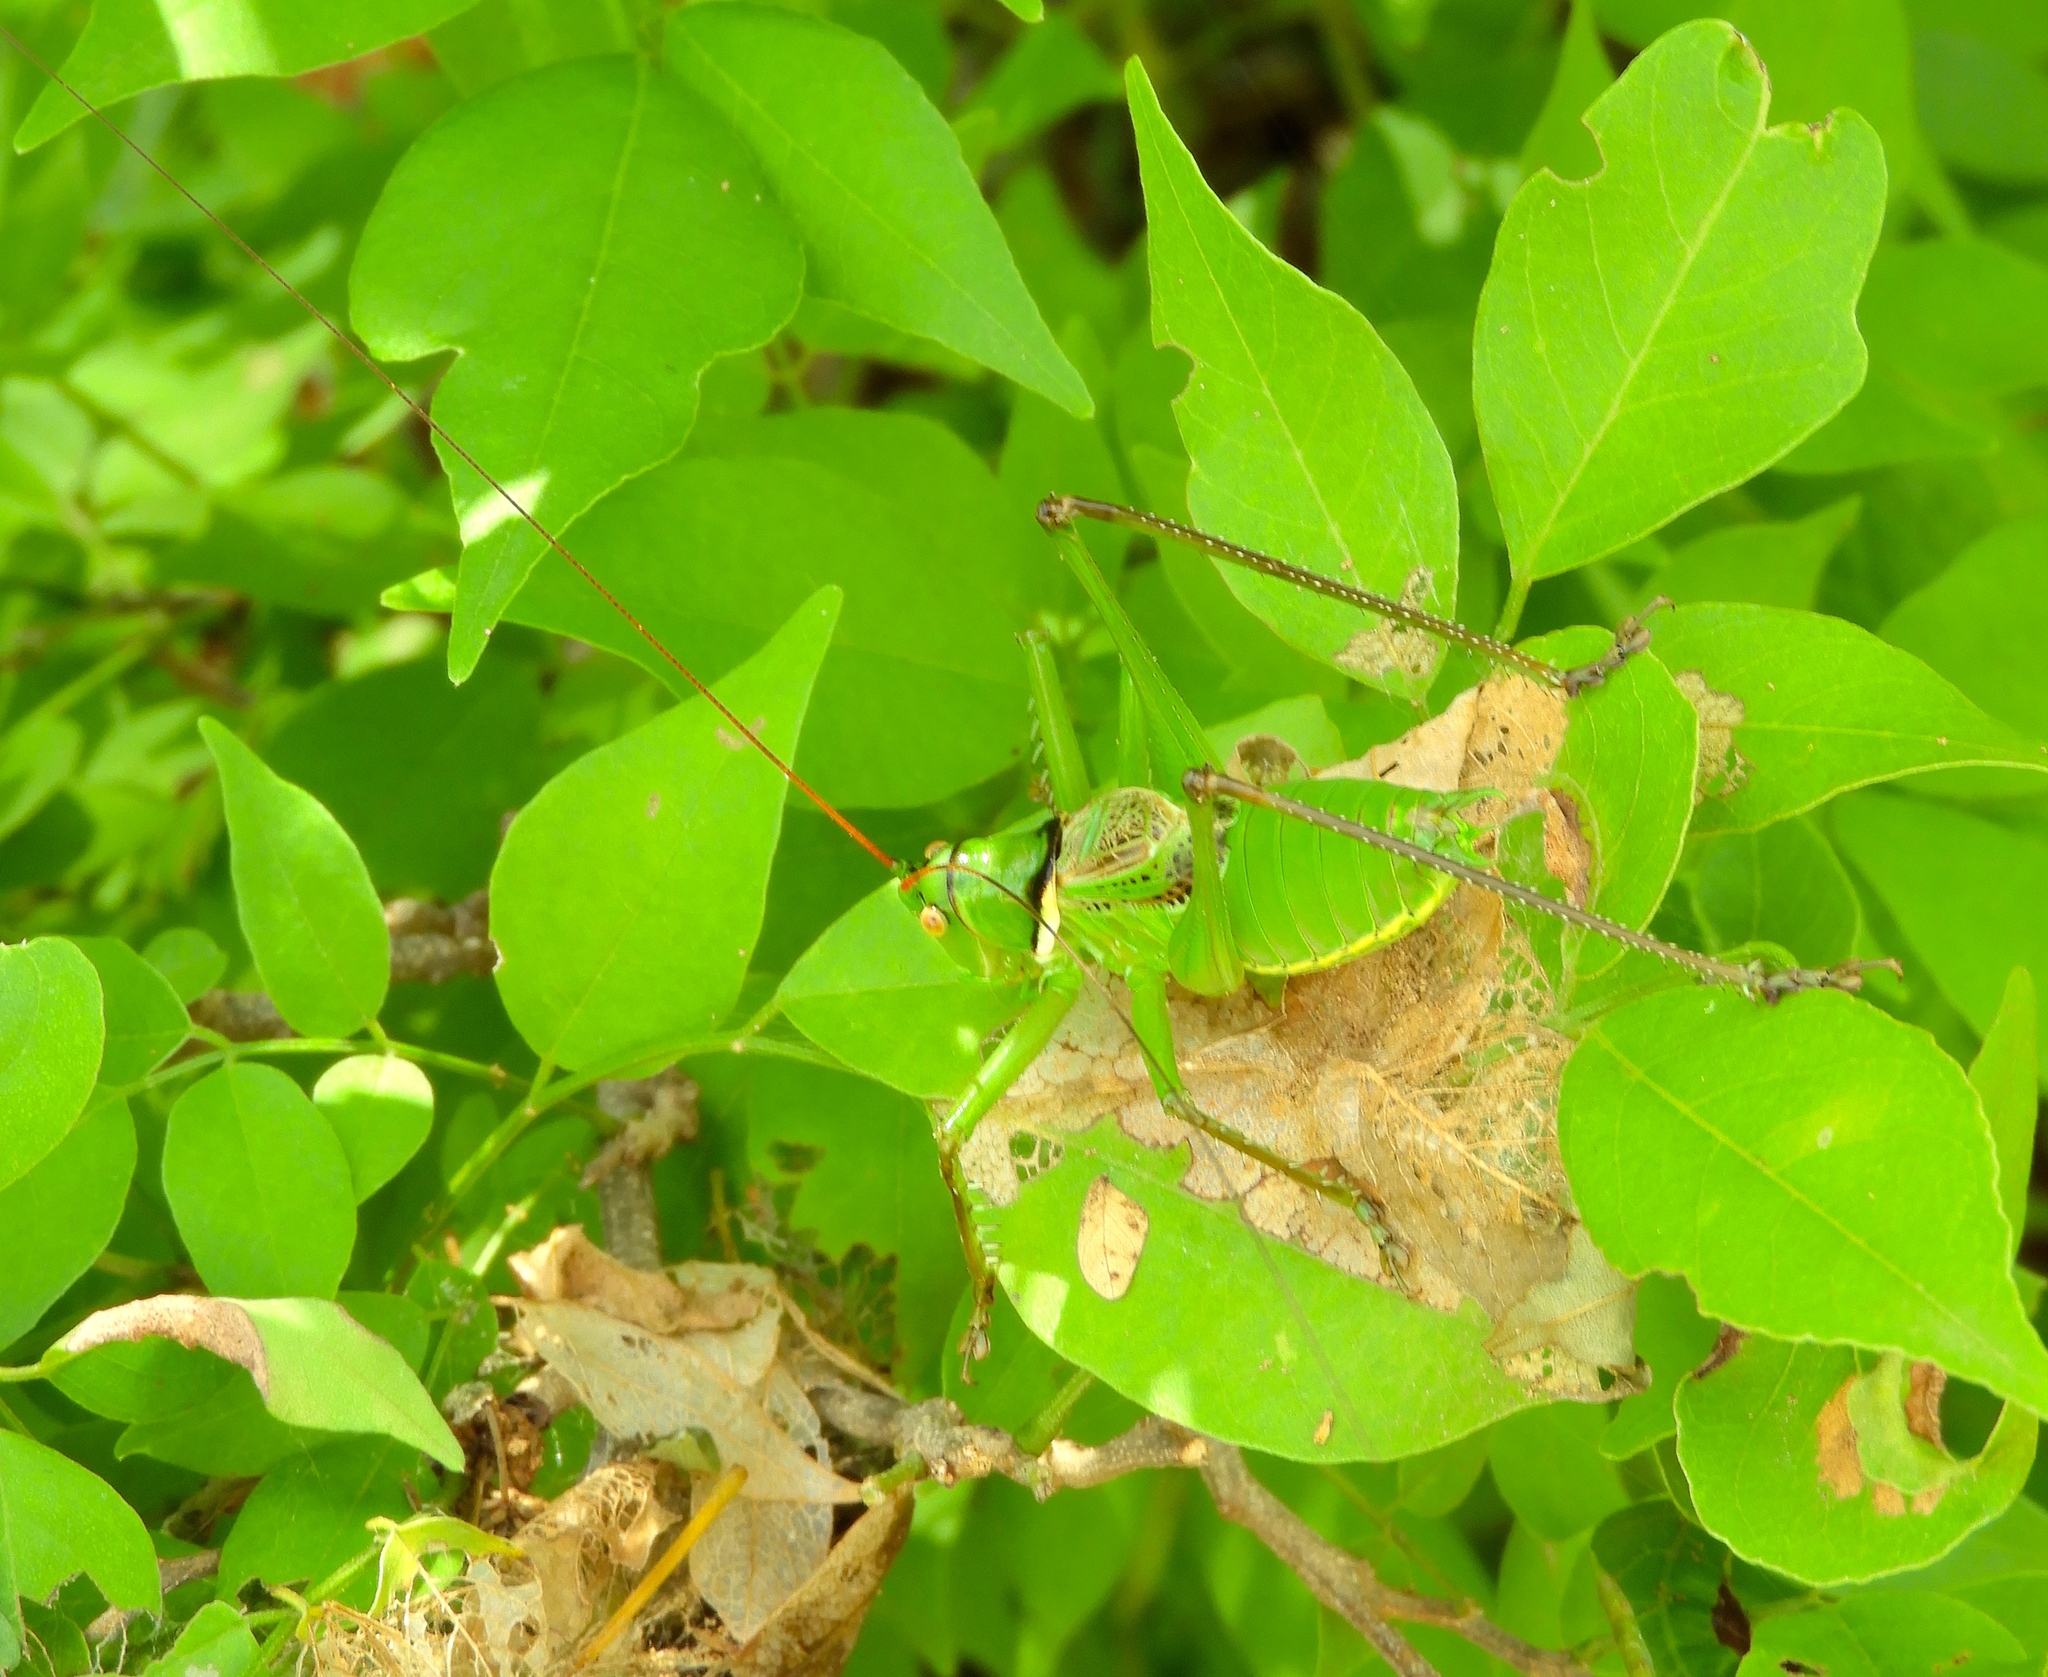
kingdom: Animalia
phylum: Arthropoda
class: Insecta
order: Orthoptera
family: Tettigoniidae
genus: Neobarrettia
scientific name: Neobarrettia sinaloae
